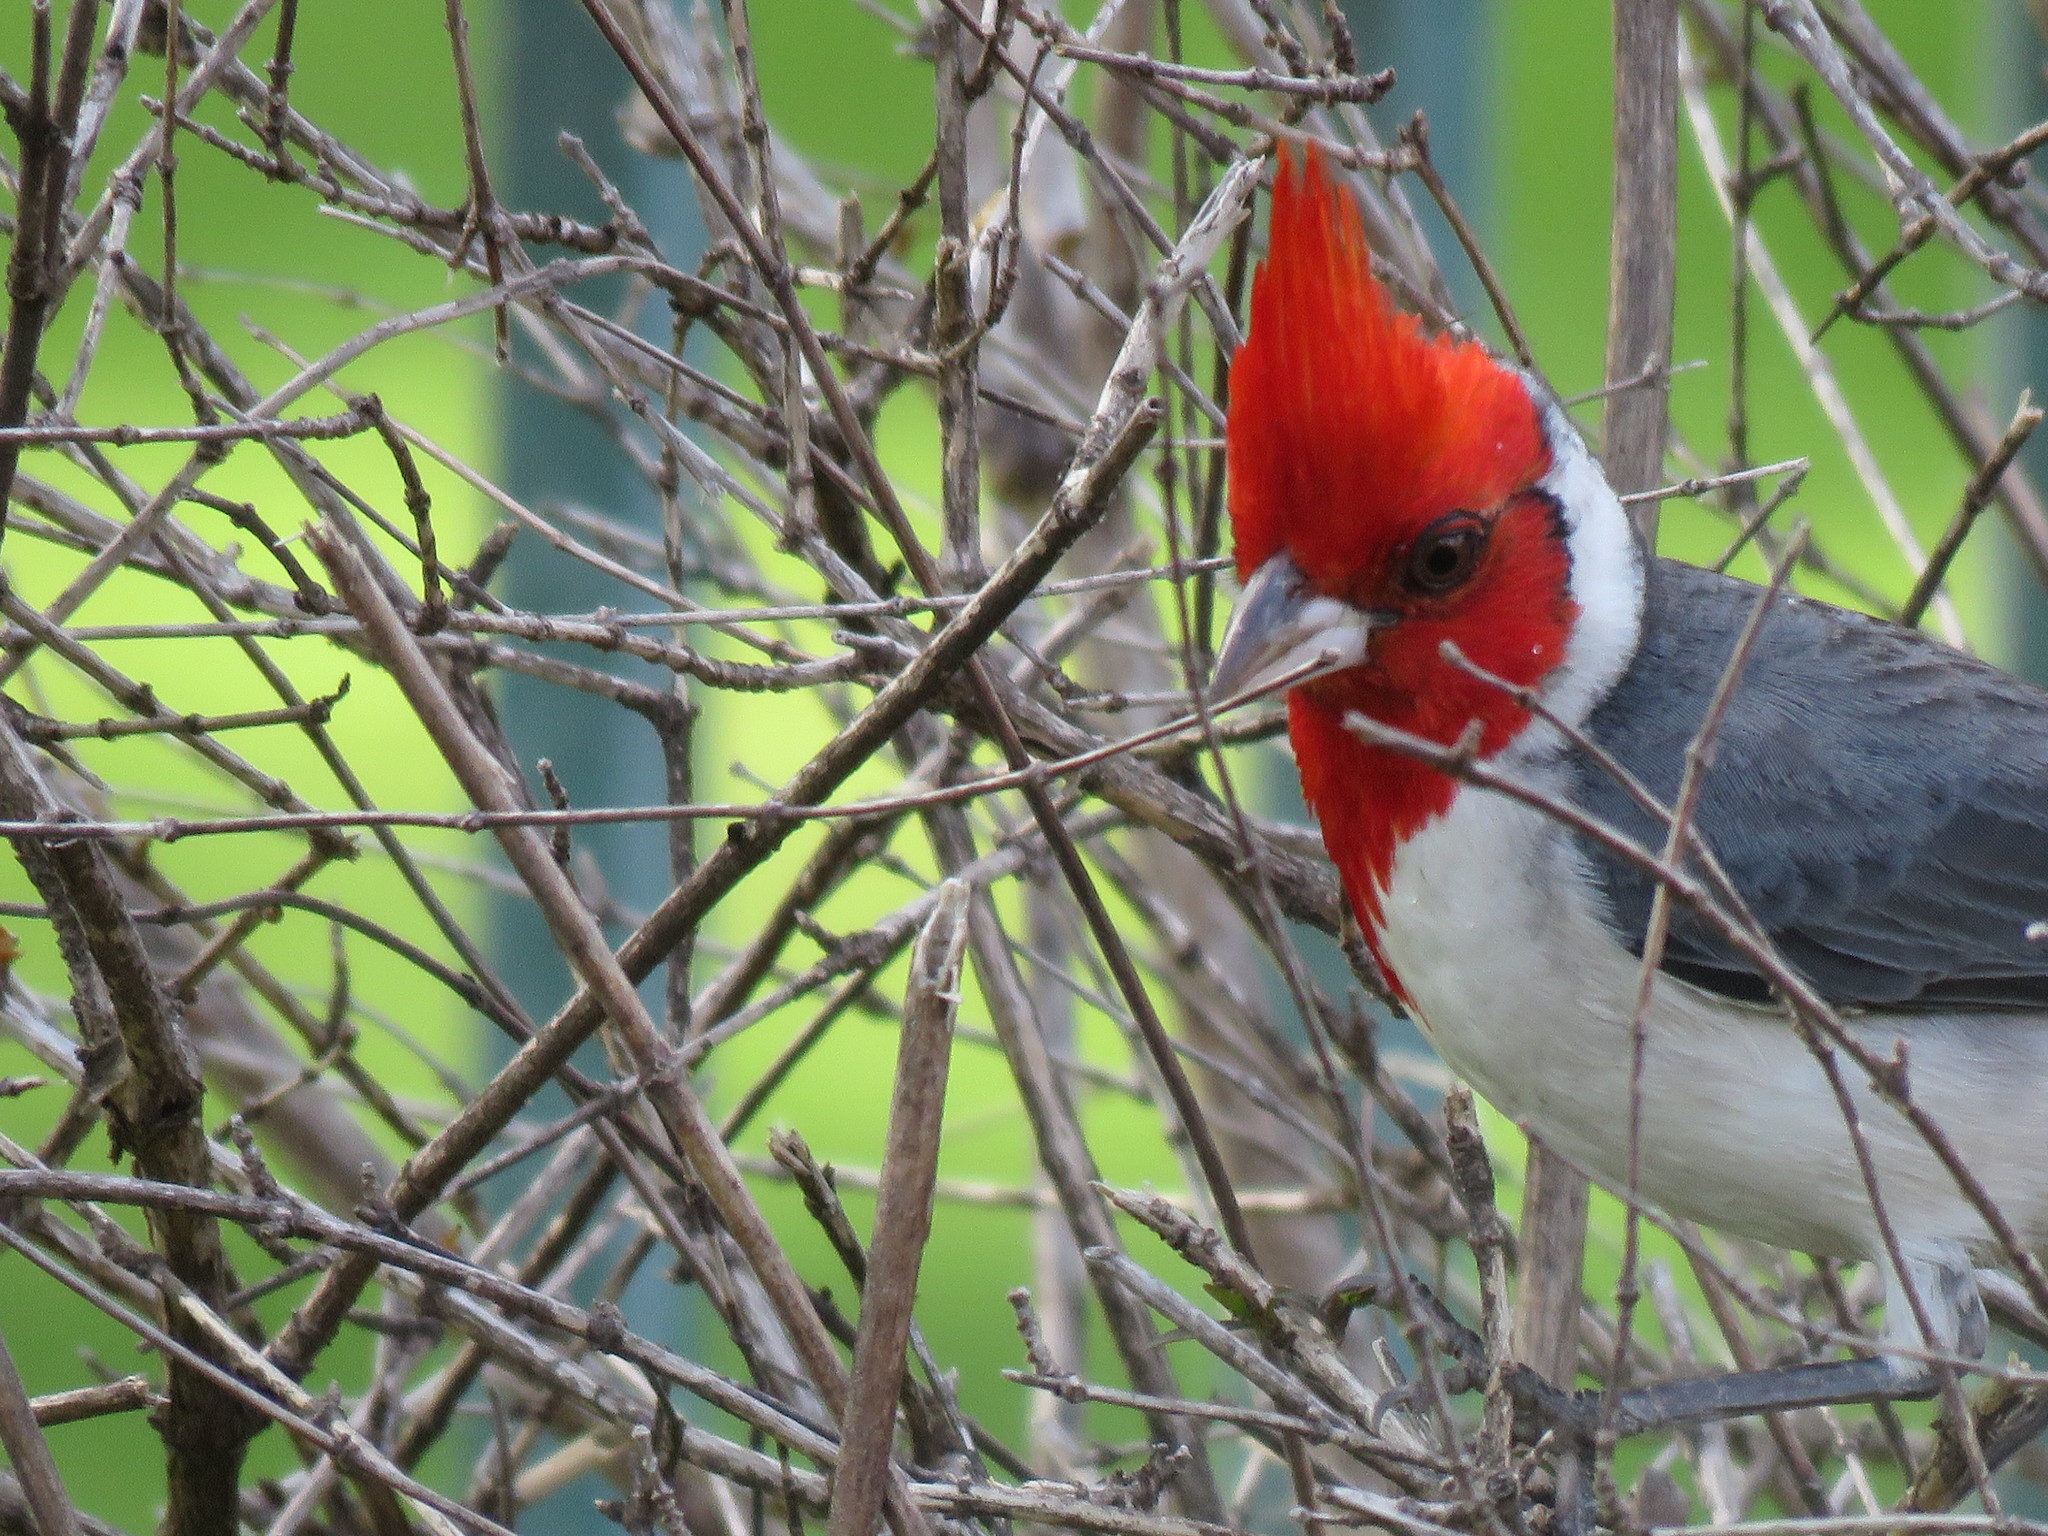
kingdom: Animalia
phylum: Chordata
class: Aves
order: Passeriformes
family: Thraupidae
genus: Paroaria
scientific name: Paroaria coronata
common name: Red-crested cardinal
